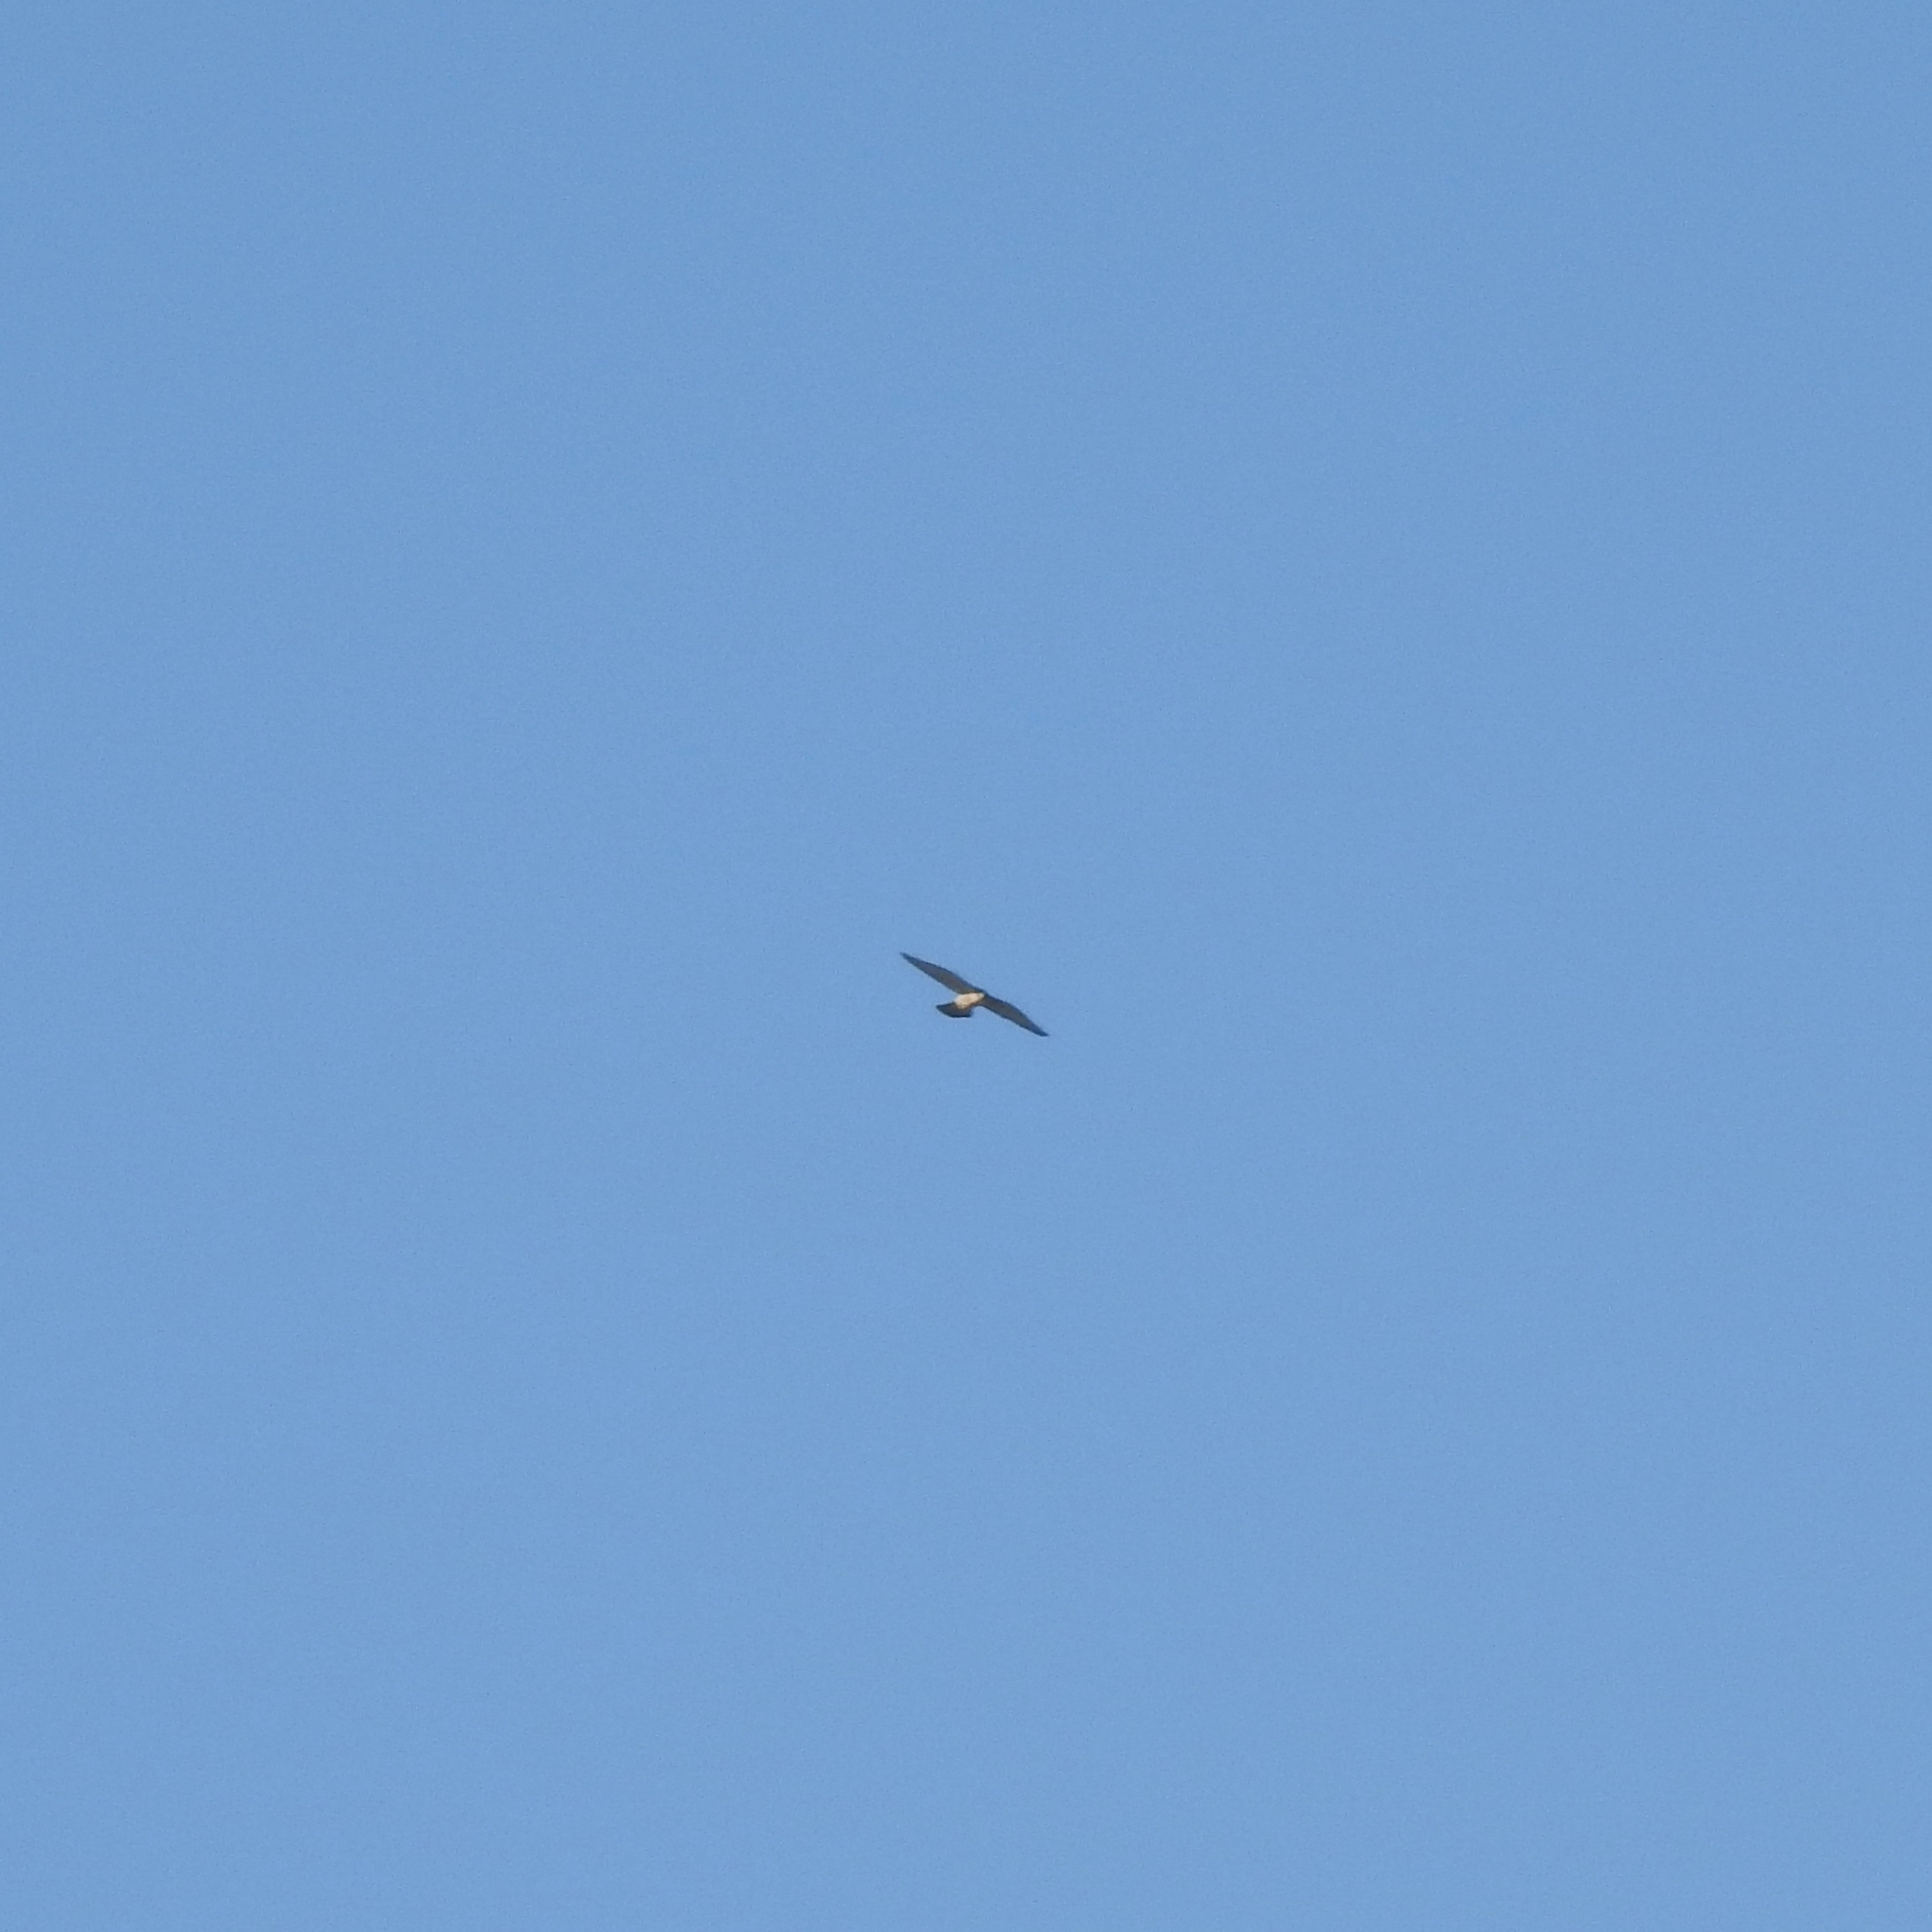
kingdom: Animalia
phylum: Chordata
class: Aves
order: Falconiformes
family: Falconidae
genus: Falco
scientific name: Falco peregrinus
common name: Peregrine falcon
